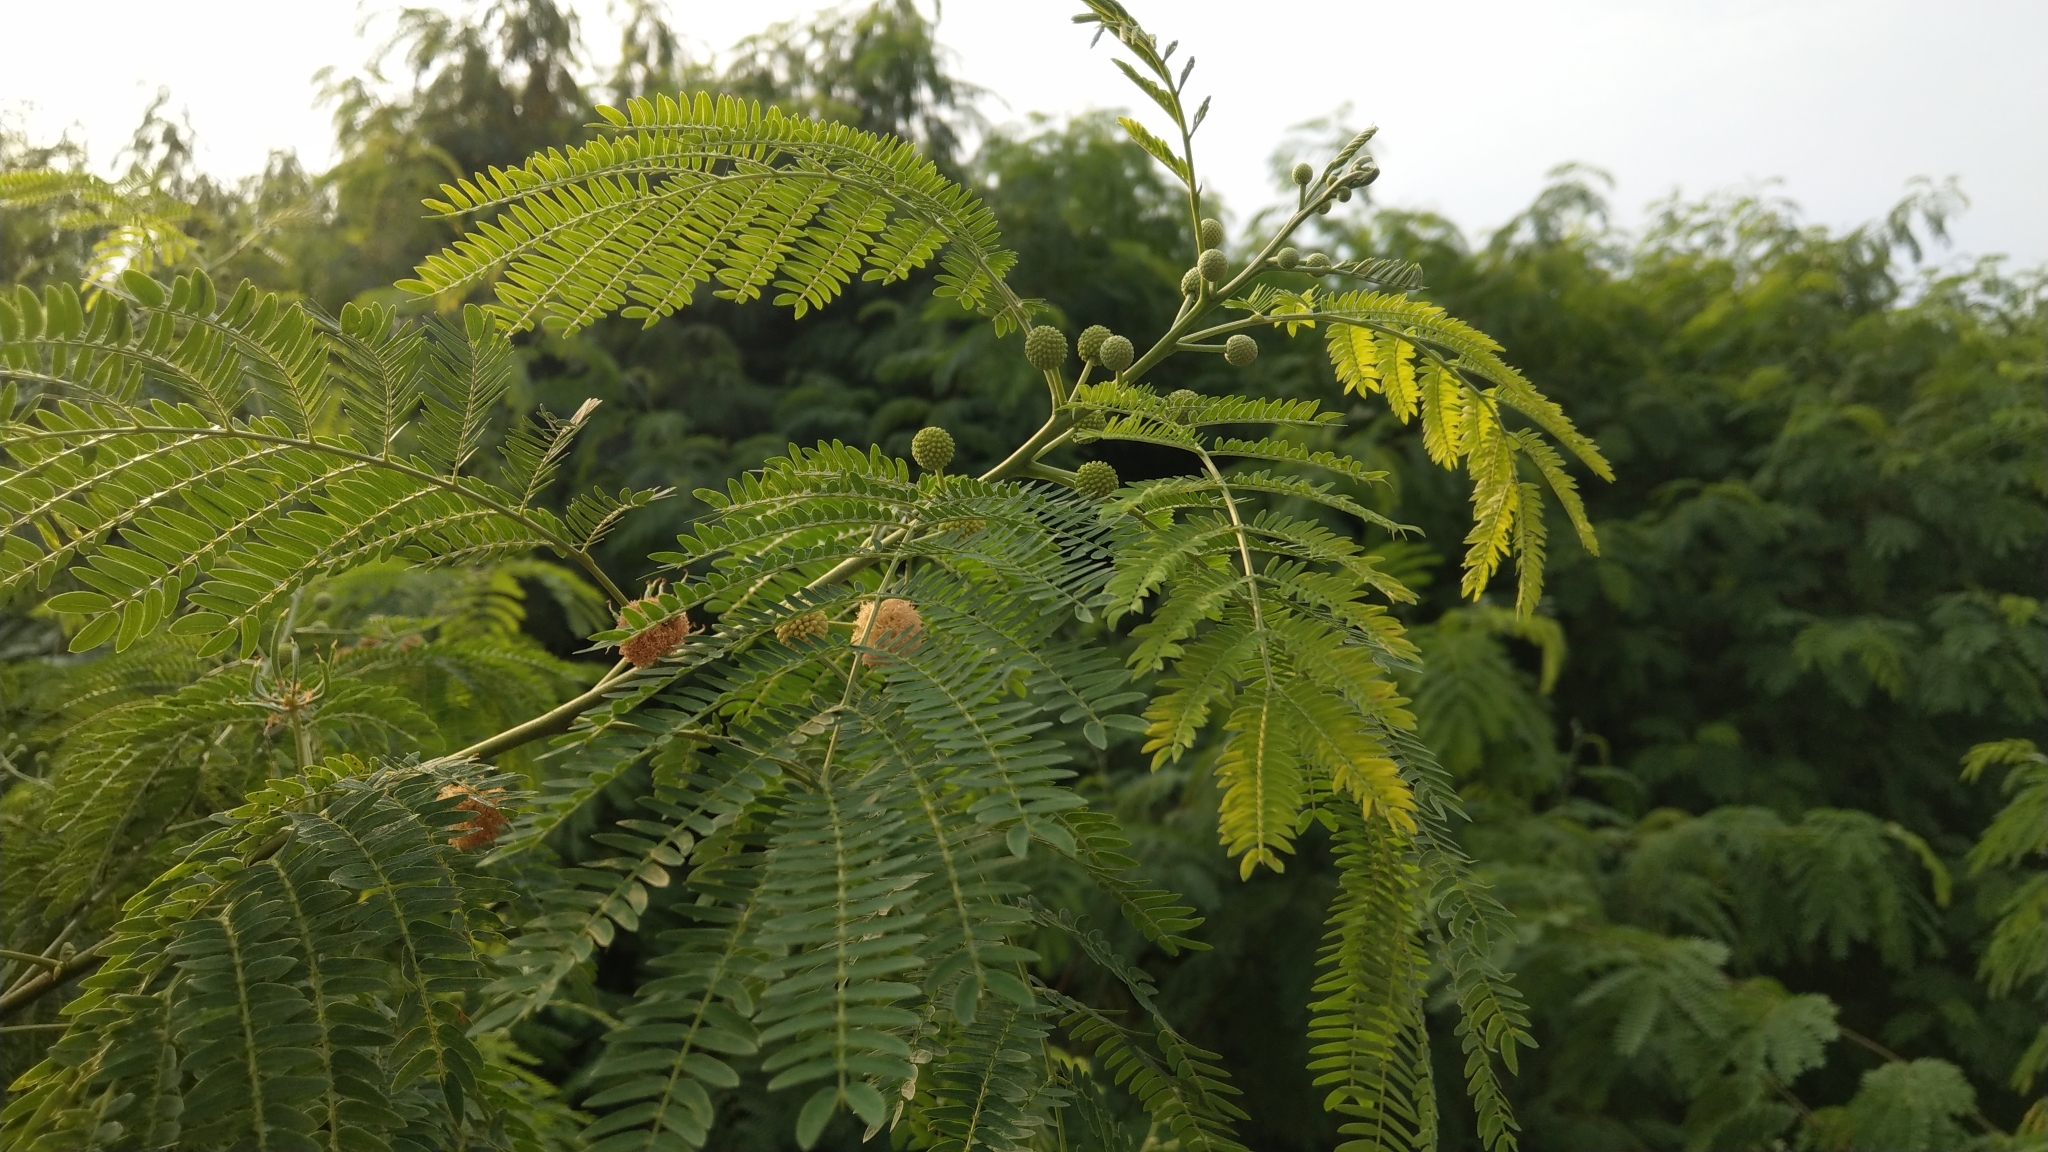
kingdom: Plantae
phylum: Tracheophyta
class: Magnoliopsida
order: Fabales
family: Fabaceae
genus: Leucaena
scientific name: Leucaena leucocephala
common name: White leadtree
